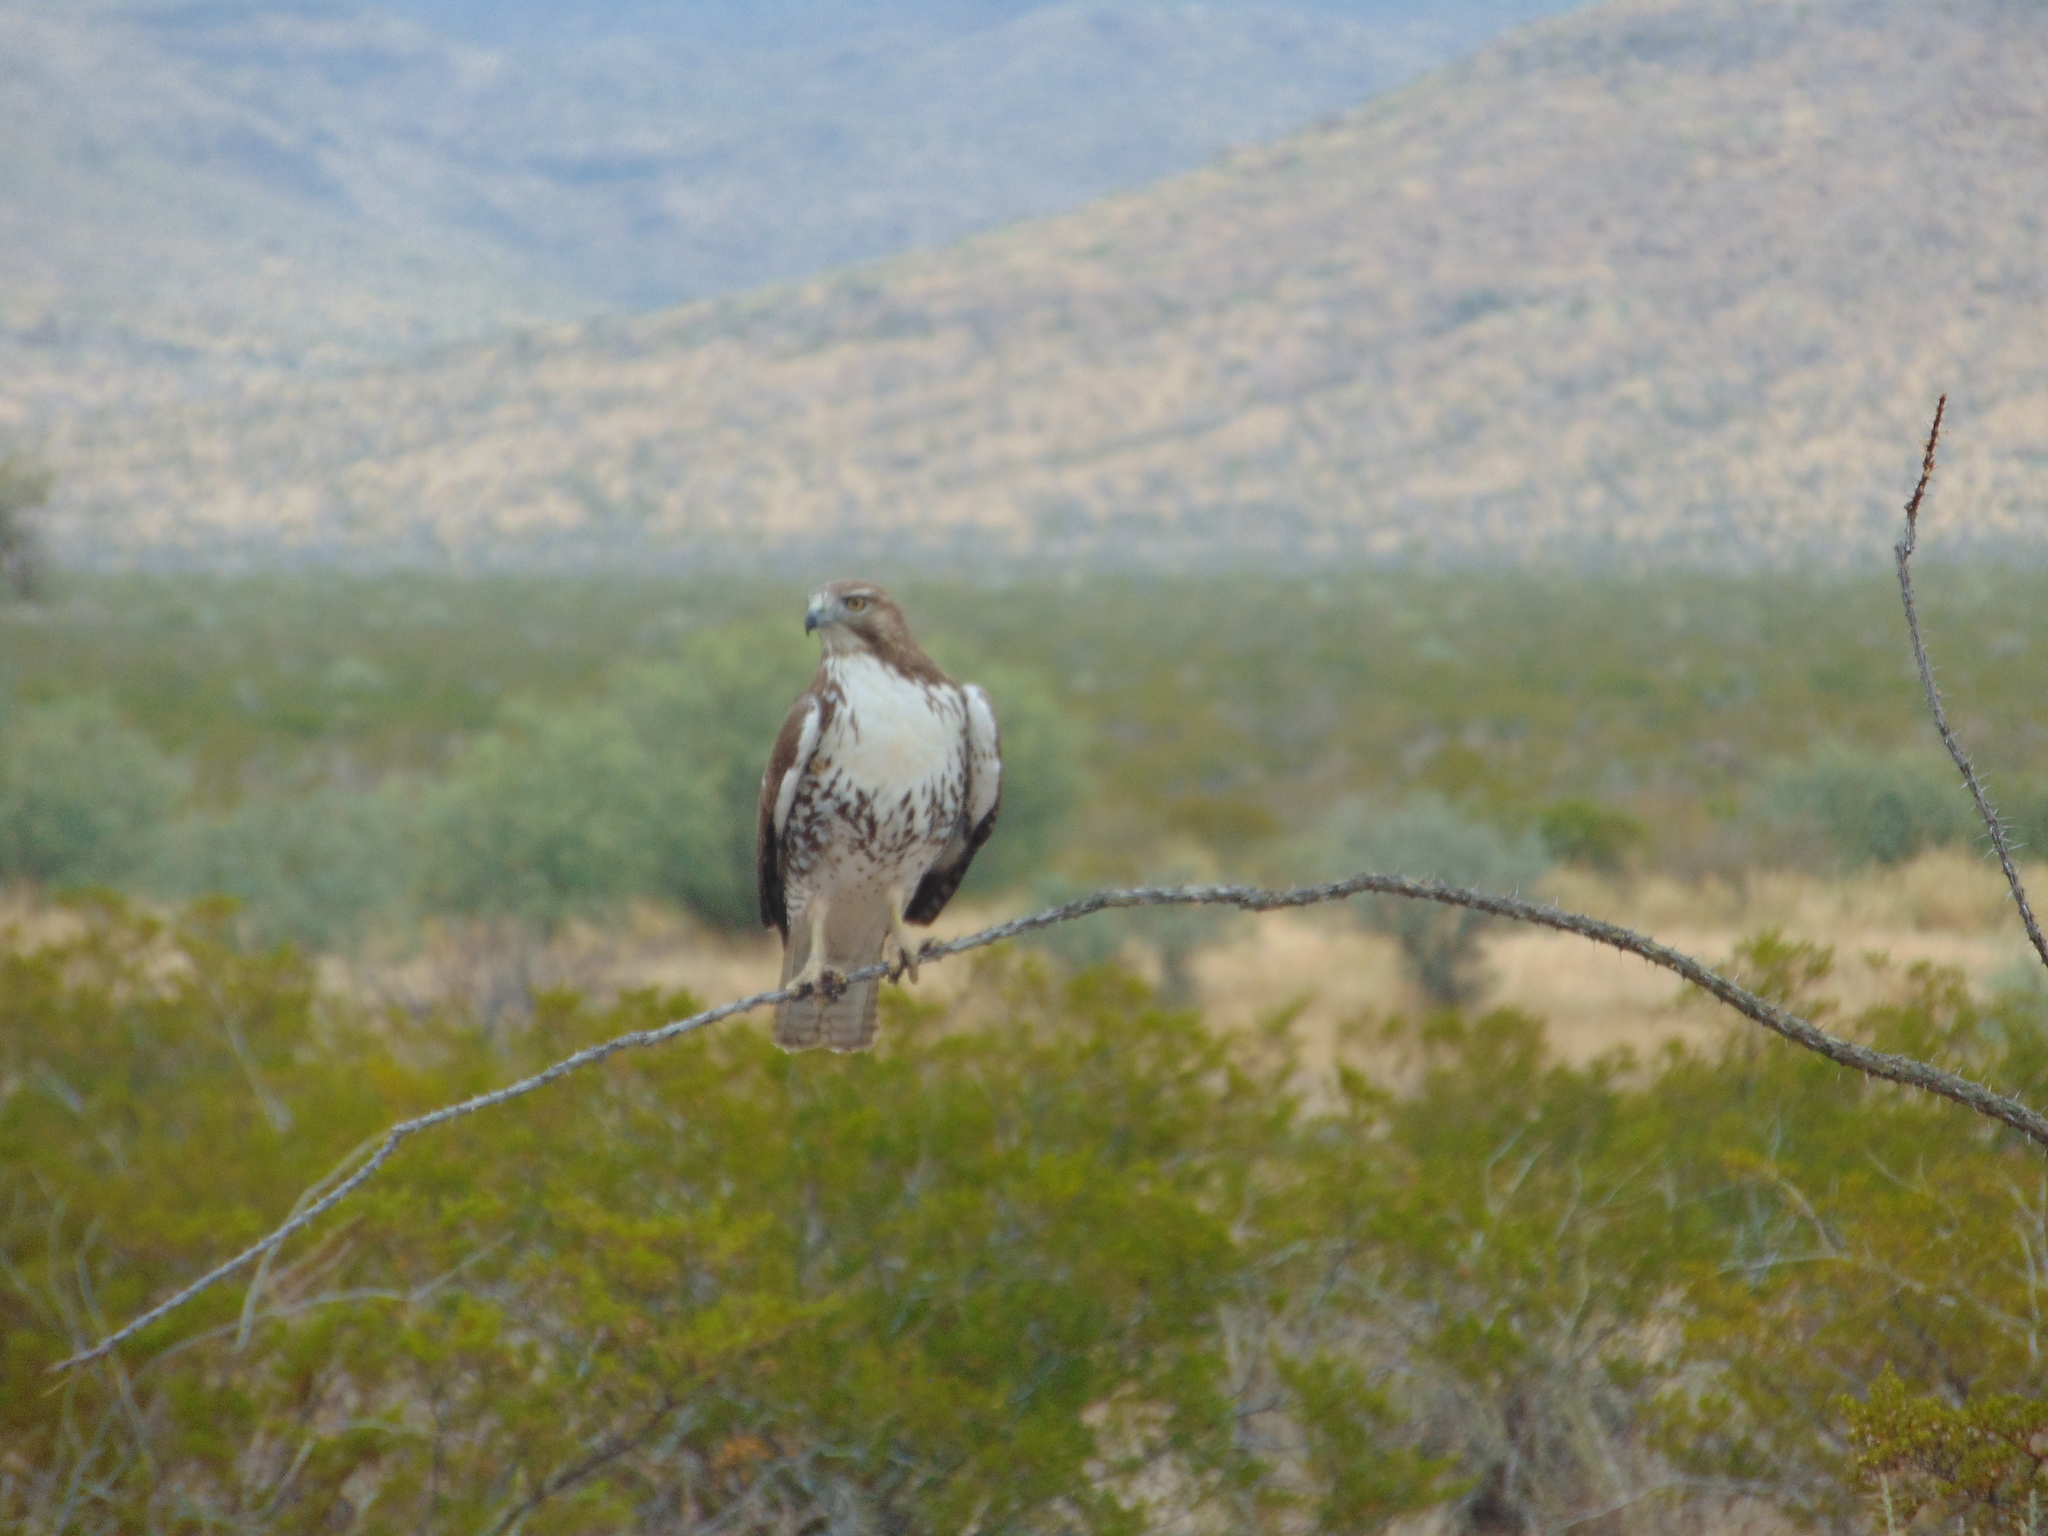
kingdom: Animalia
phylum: Chordata
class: Aves
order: Accipitriformes
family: Accipitridae
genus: Buteo
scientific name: Buteo jamaicensis
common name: Red-tailed hawk
